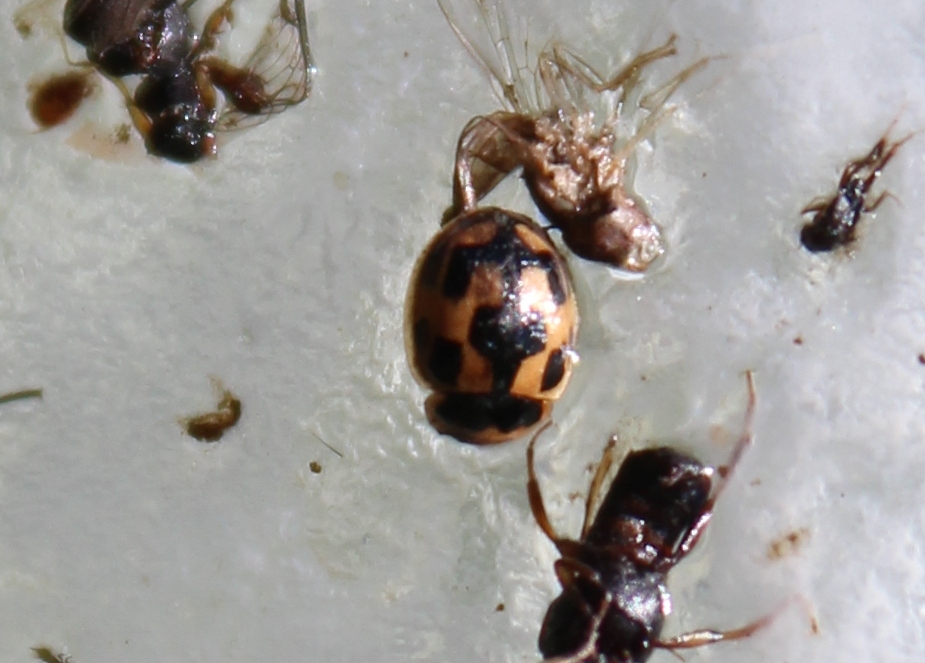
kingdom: Animalia
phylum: Arthropoda
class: Insecta
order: Coleoptera
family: Coccinellidae
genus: Propylaea
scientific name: Propylaea quatuordecimpunctata
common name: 14-spotted ladybird beetle
